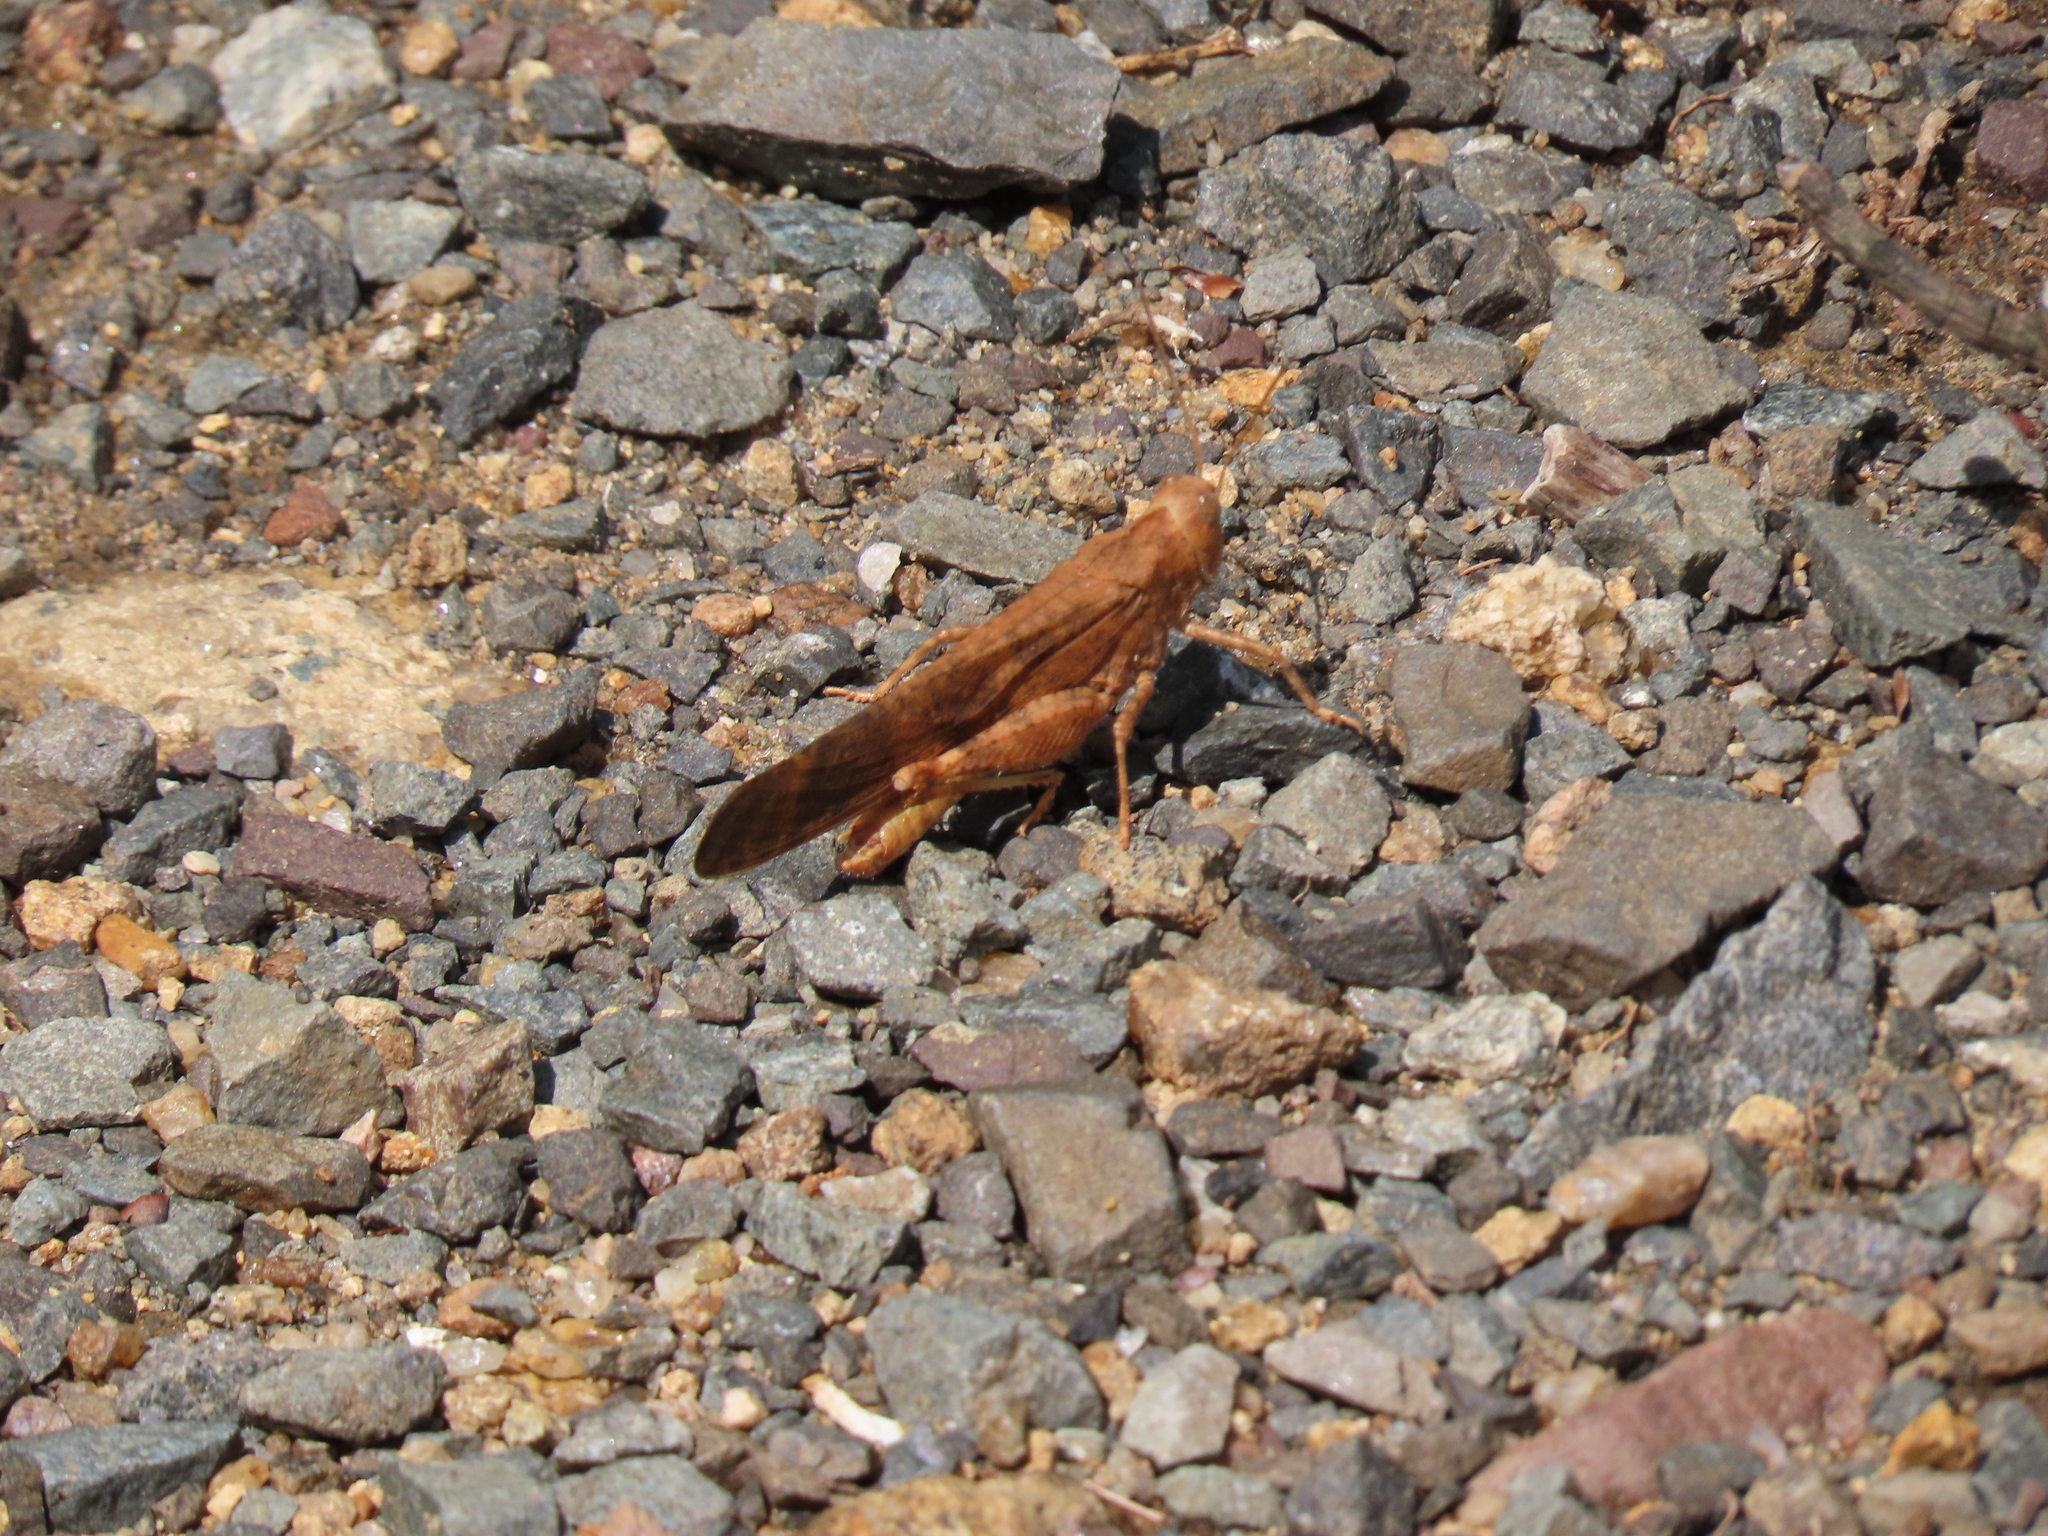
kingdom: Animalia
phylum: Arthropoda
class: Insecta
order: Orthoptera
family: Acrididae
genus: Dissosteira
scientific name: Dissosteira carolina
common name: Carolina grasshopper
